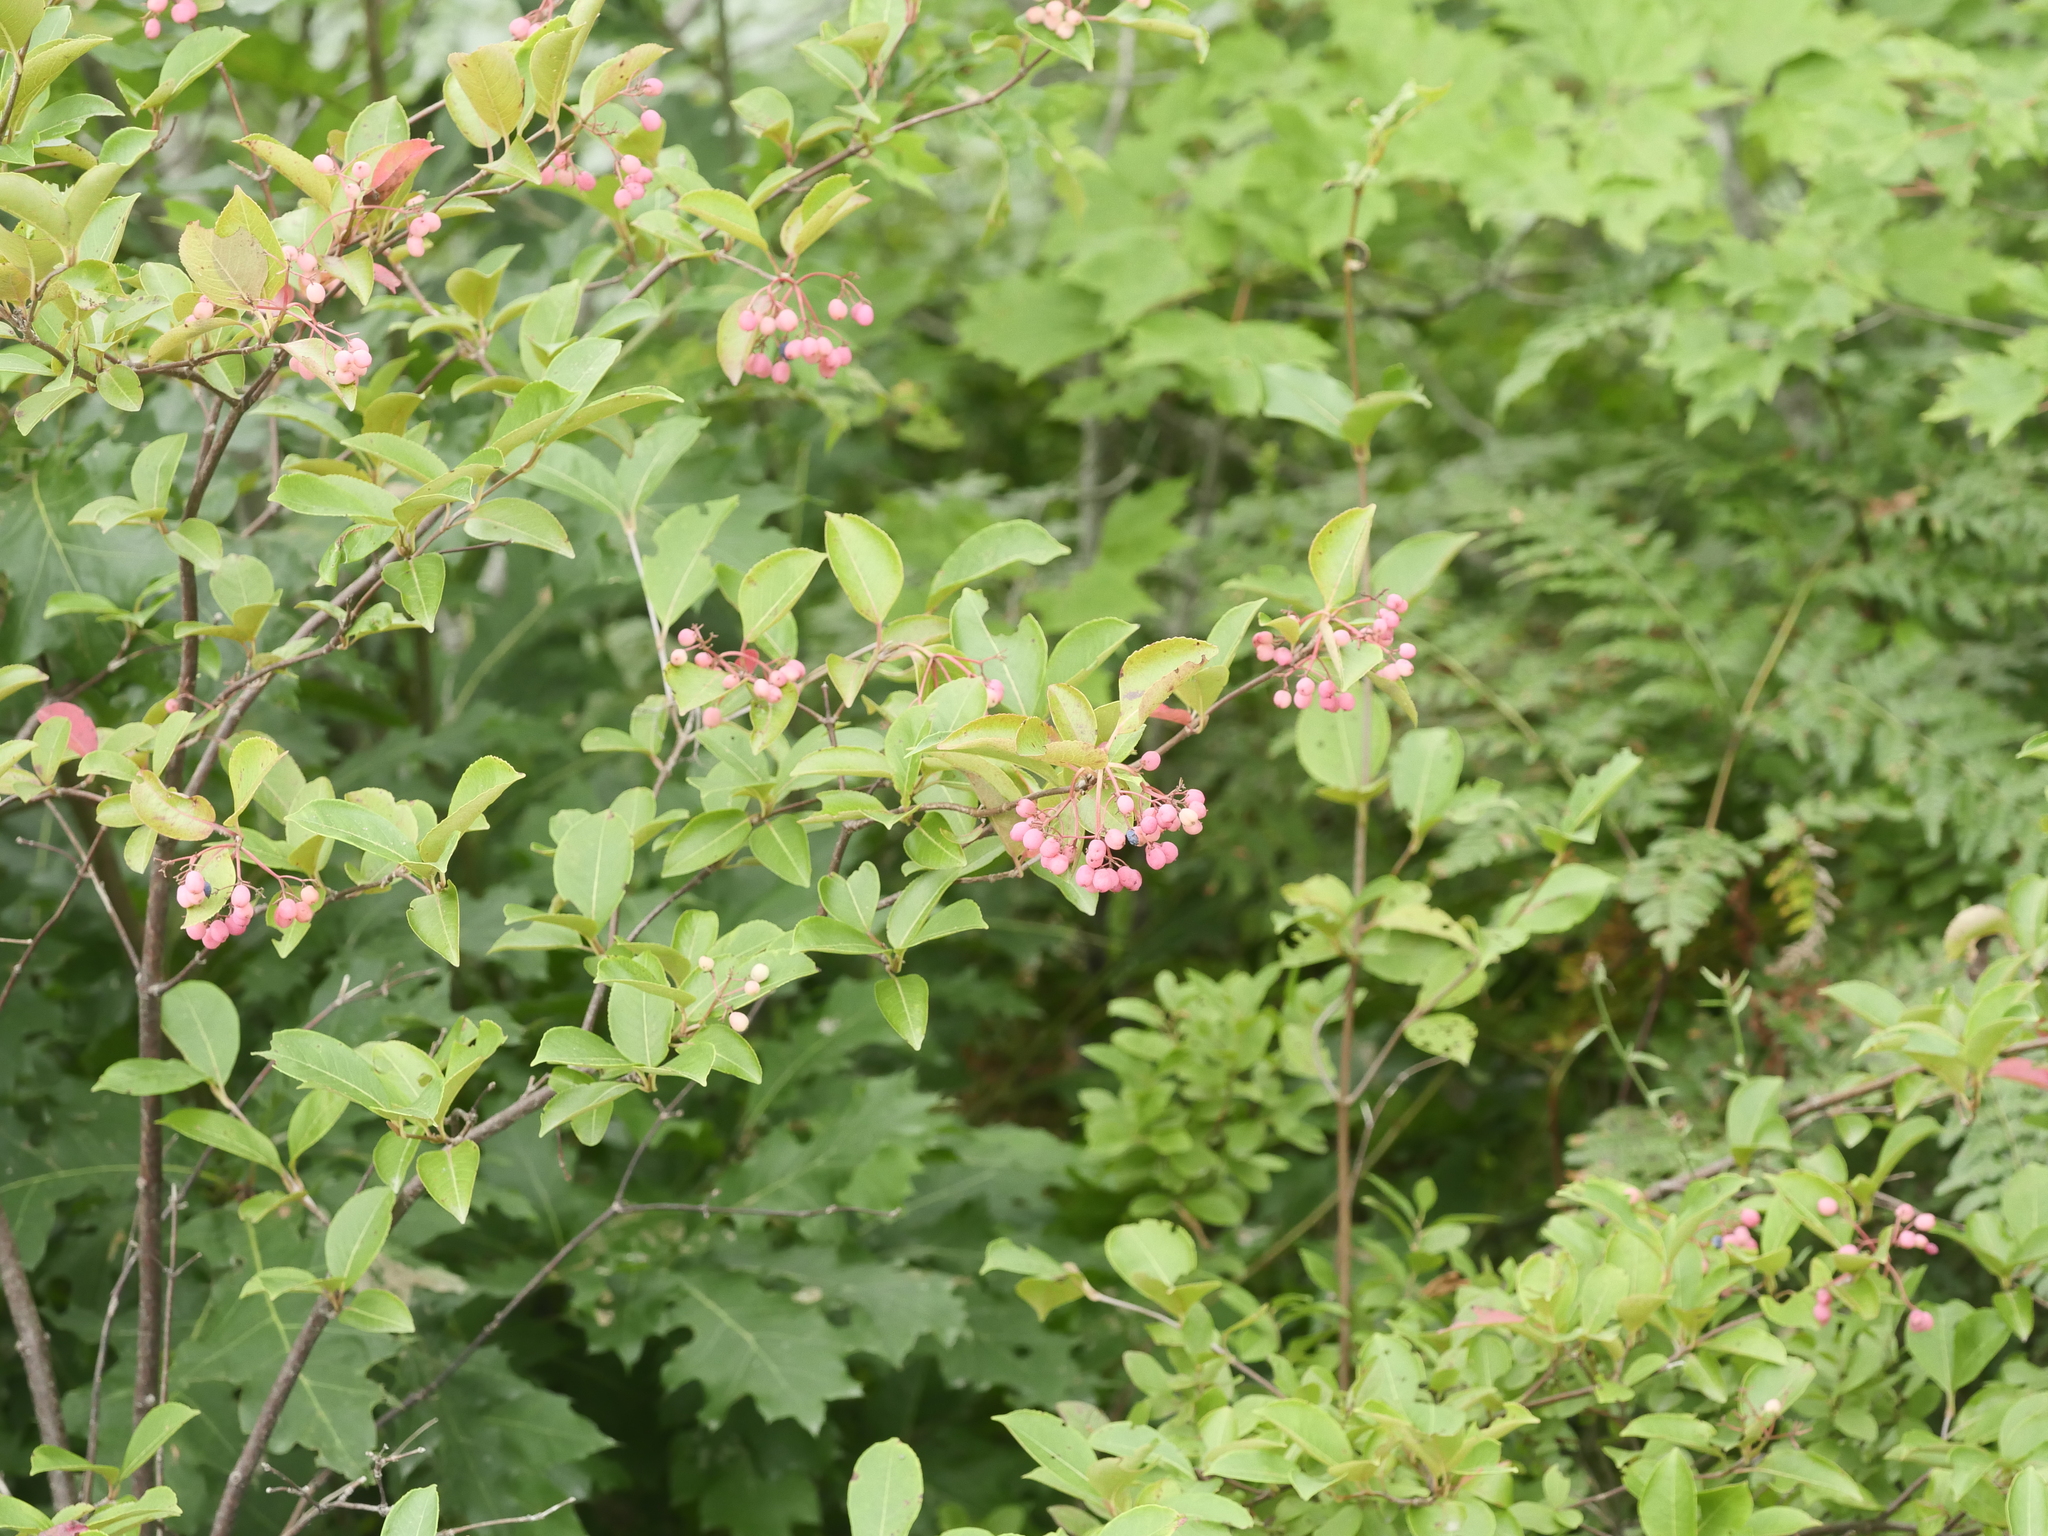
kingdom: Plantae
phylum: Tracheophyta
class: Magnoliopsida
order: Dipsacales
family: Viburnaceae
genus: Viburnum
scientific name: Viburnum cassinoides
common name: Swamp haw
